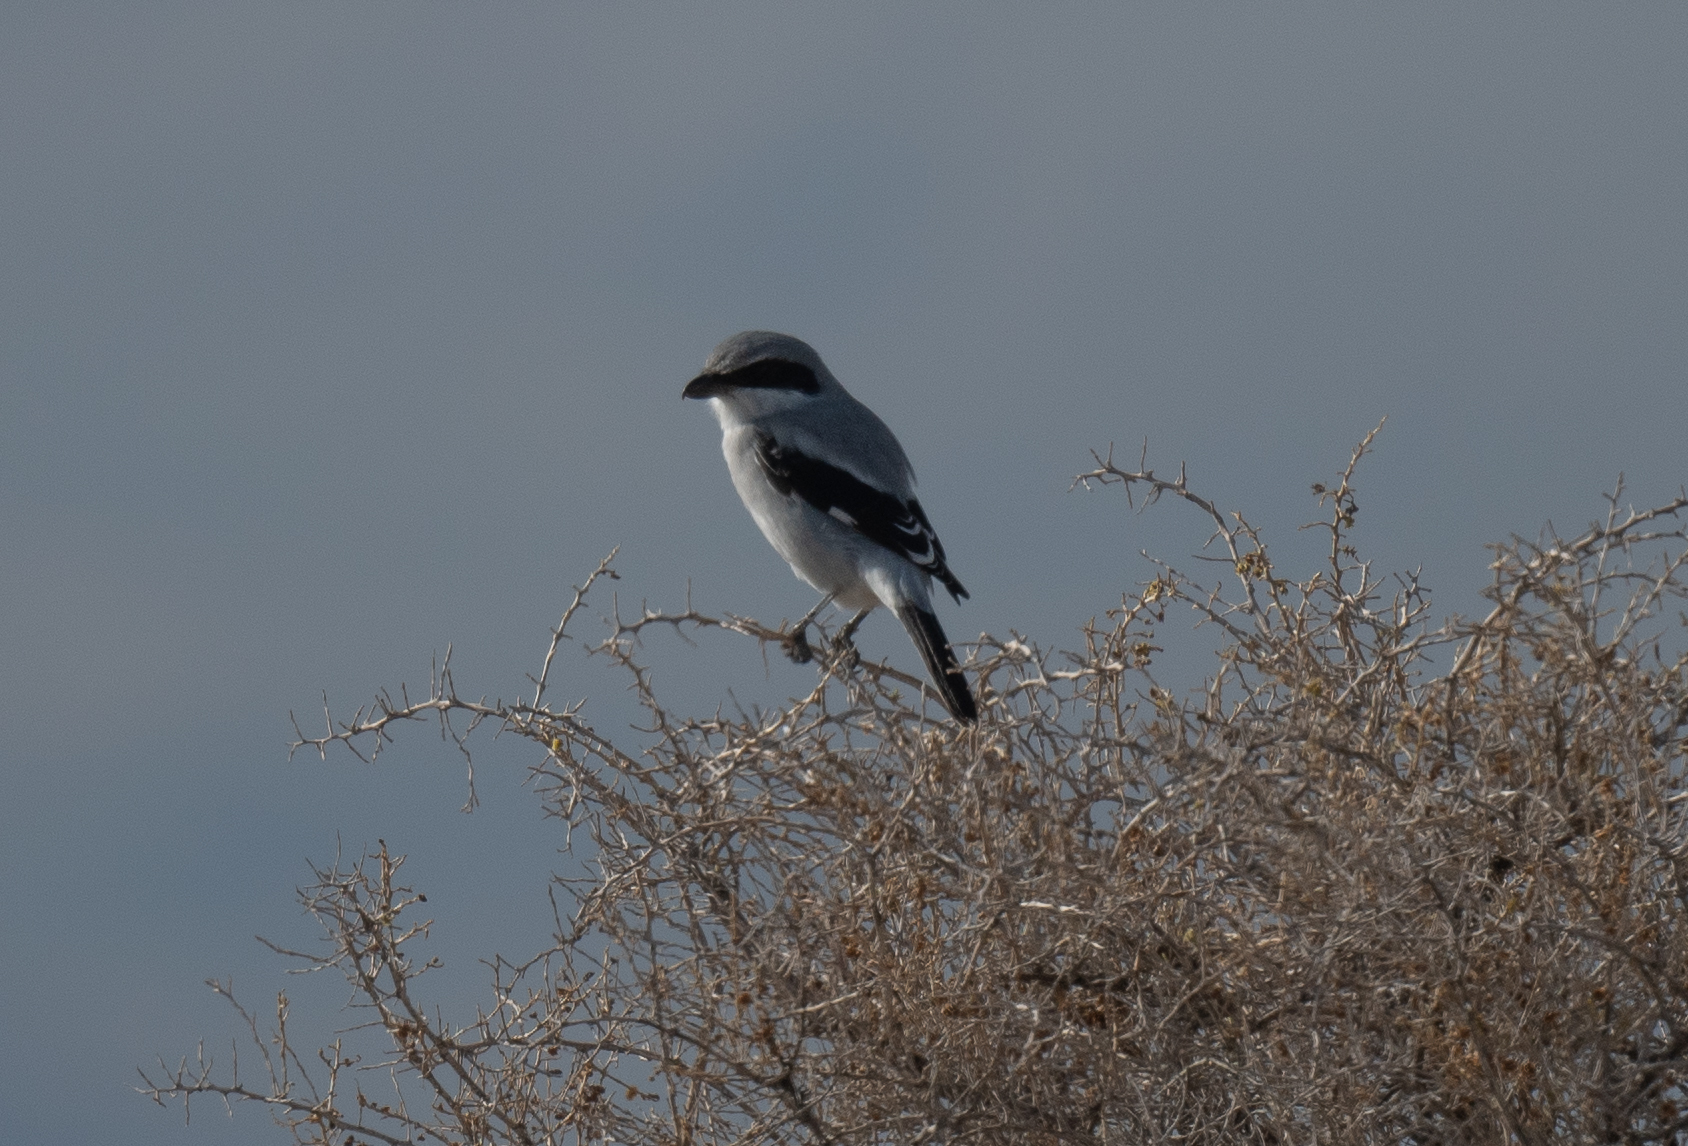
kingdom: Animalia
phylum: Chordata
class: Aves
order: Passeriformes
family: Laniidae
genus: Lanius
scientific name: Lanius ludovicianus
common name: Loggerhead shrike
